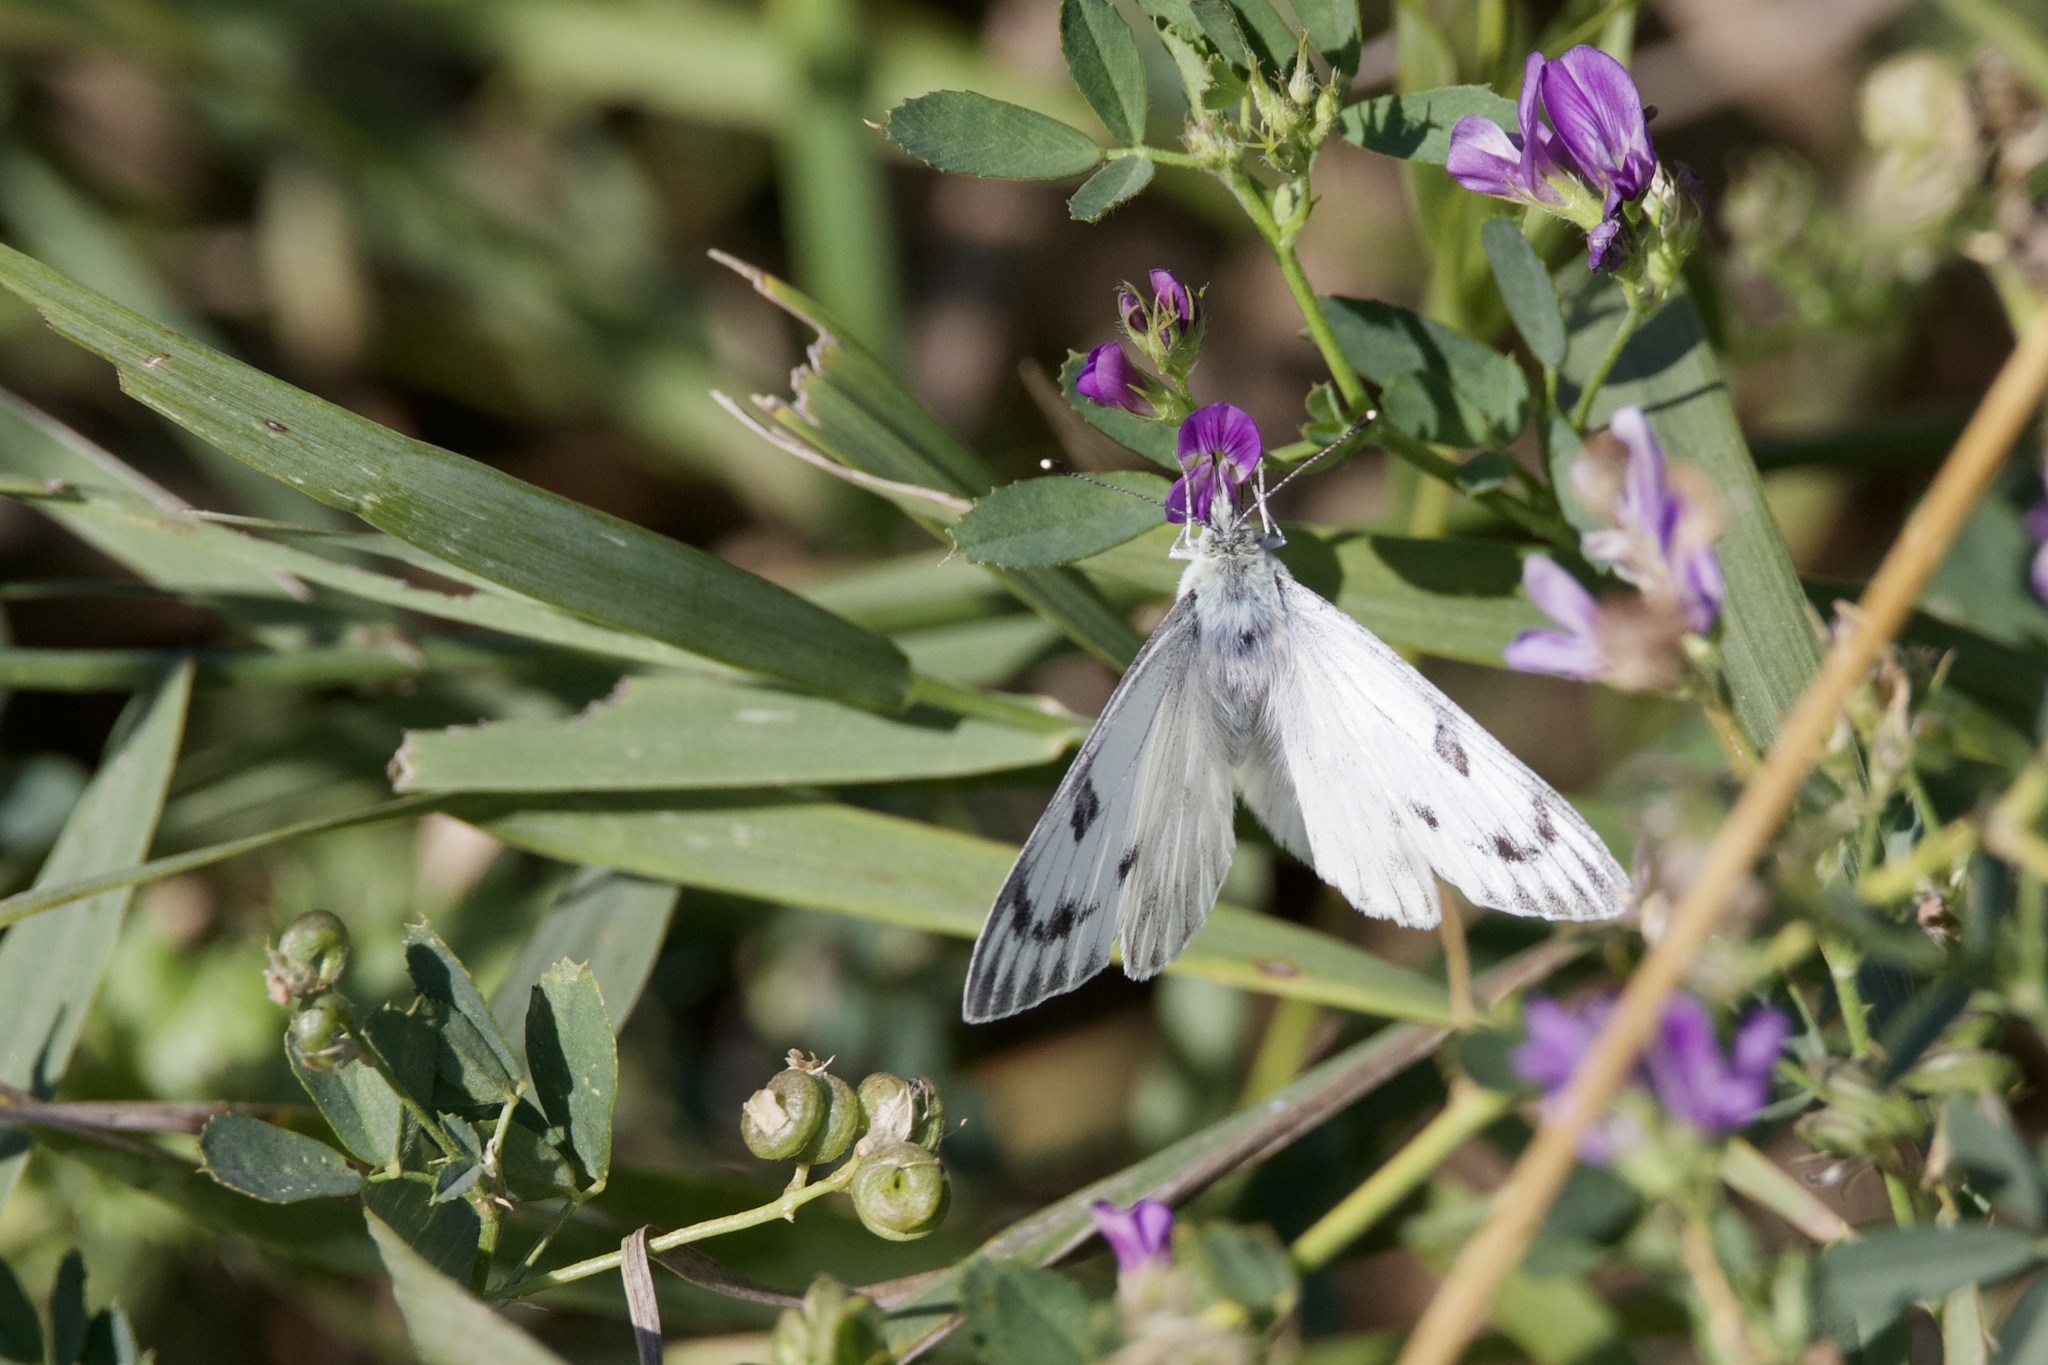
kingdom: Animalia
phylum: Arthropoda
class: Insecta
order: Lepidoptera
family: Pieridae
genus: Pontia
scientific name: Pontia occidentalis
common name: Western white
